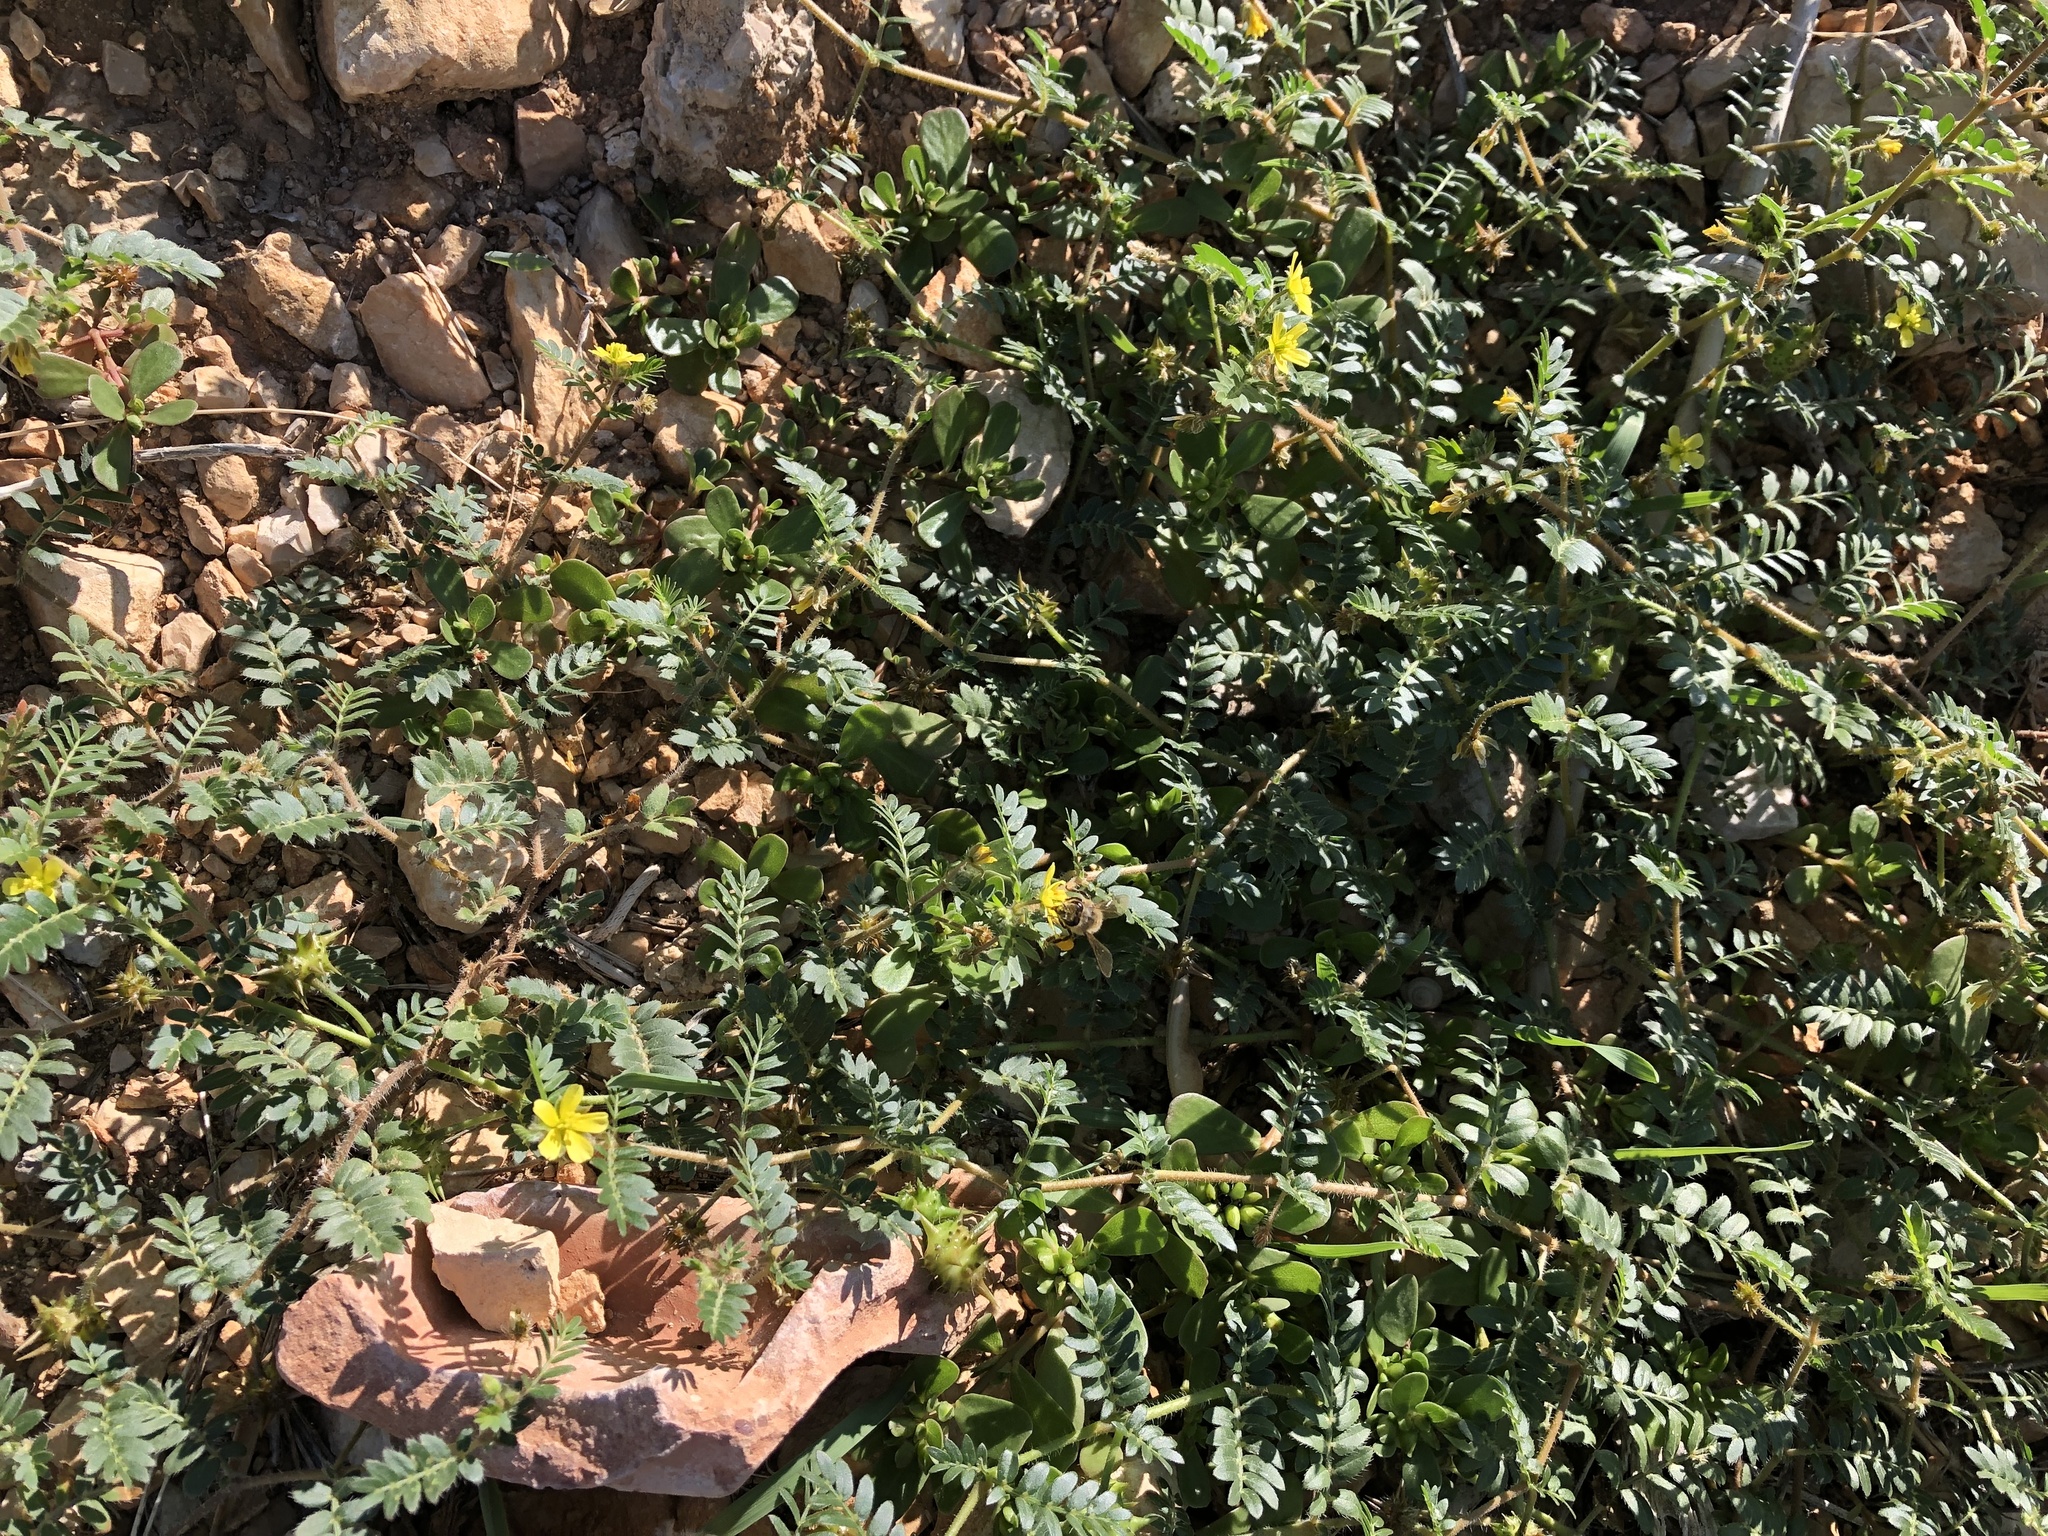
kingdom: Plantae
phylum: Tracheophyta
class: Magnoliopsida
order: Zygophyllales
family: Zygophyllaceae
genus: Tribulus
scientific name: Tribulus terrestris
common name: Puncturevine
